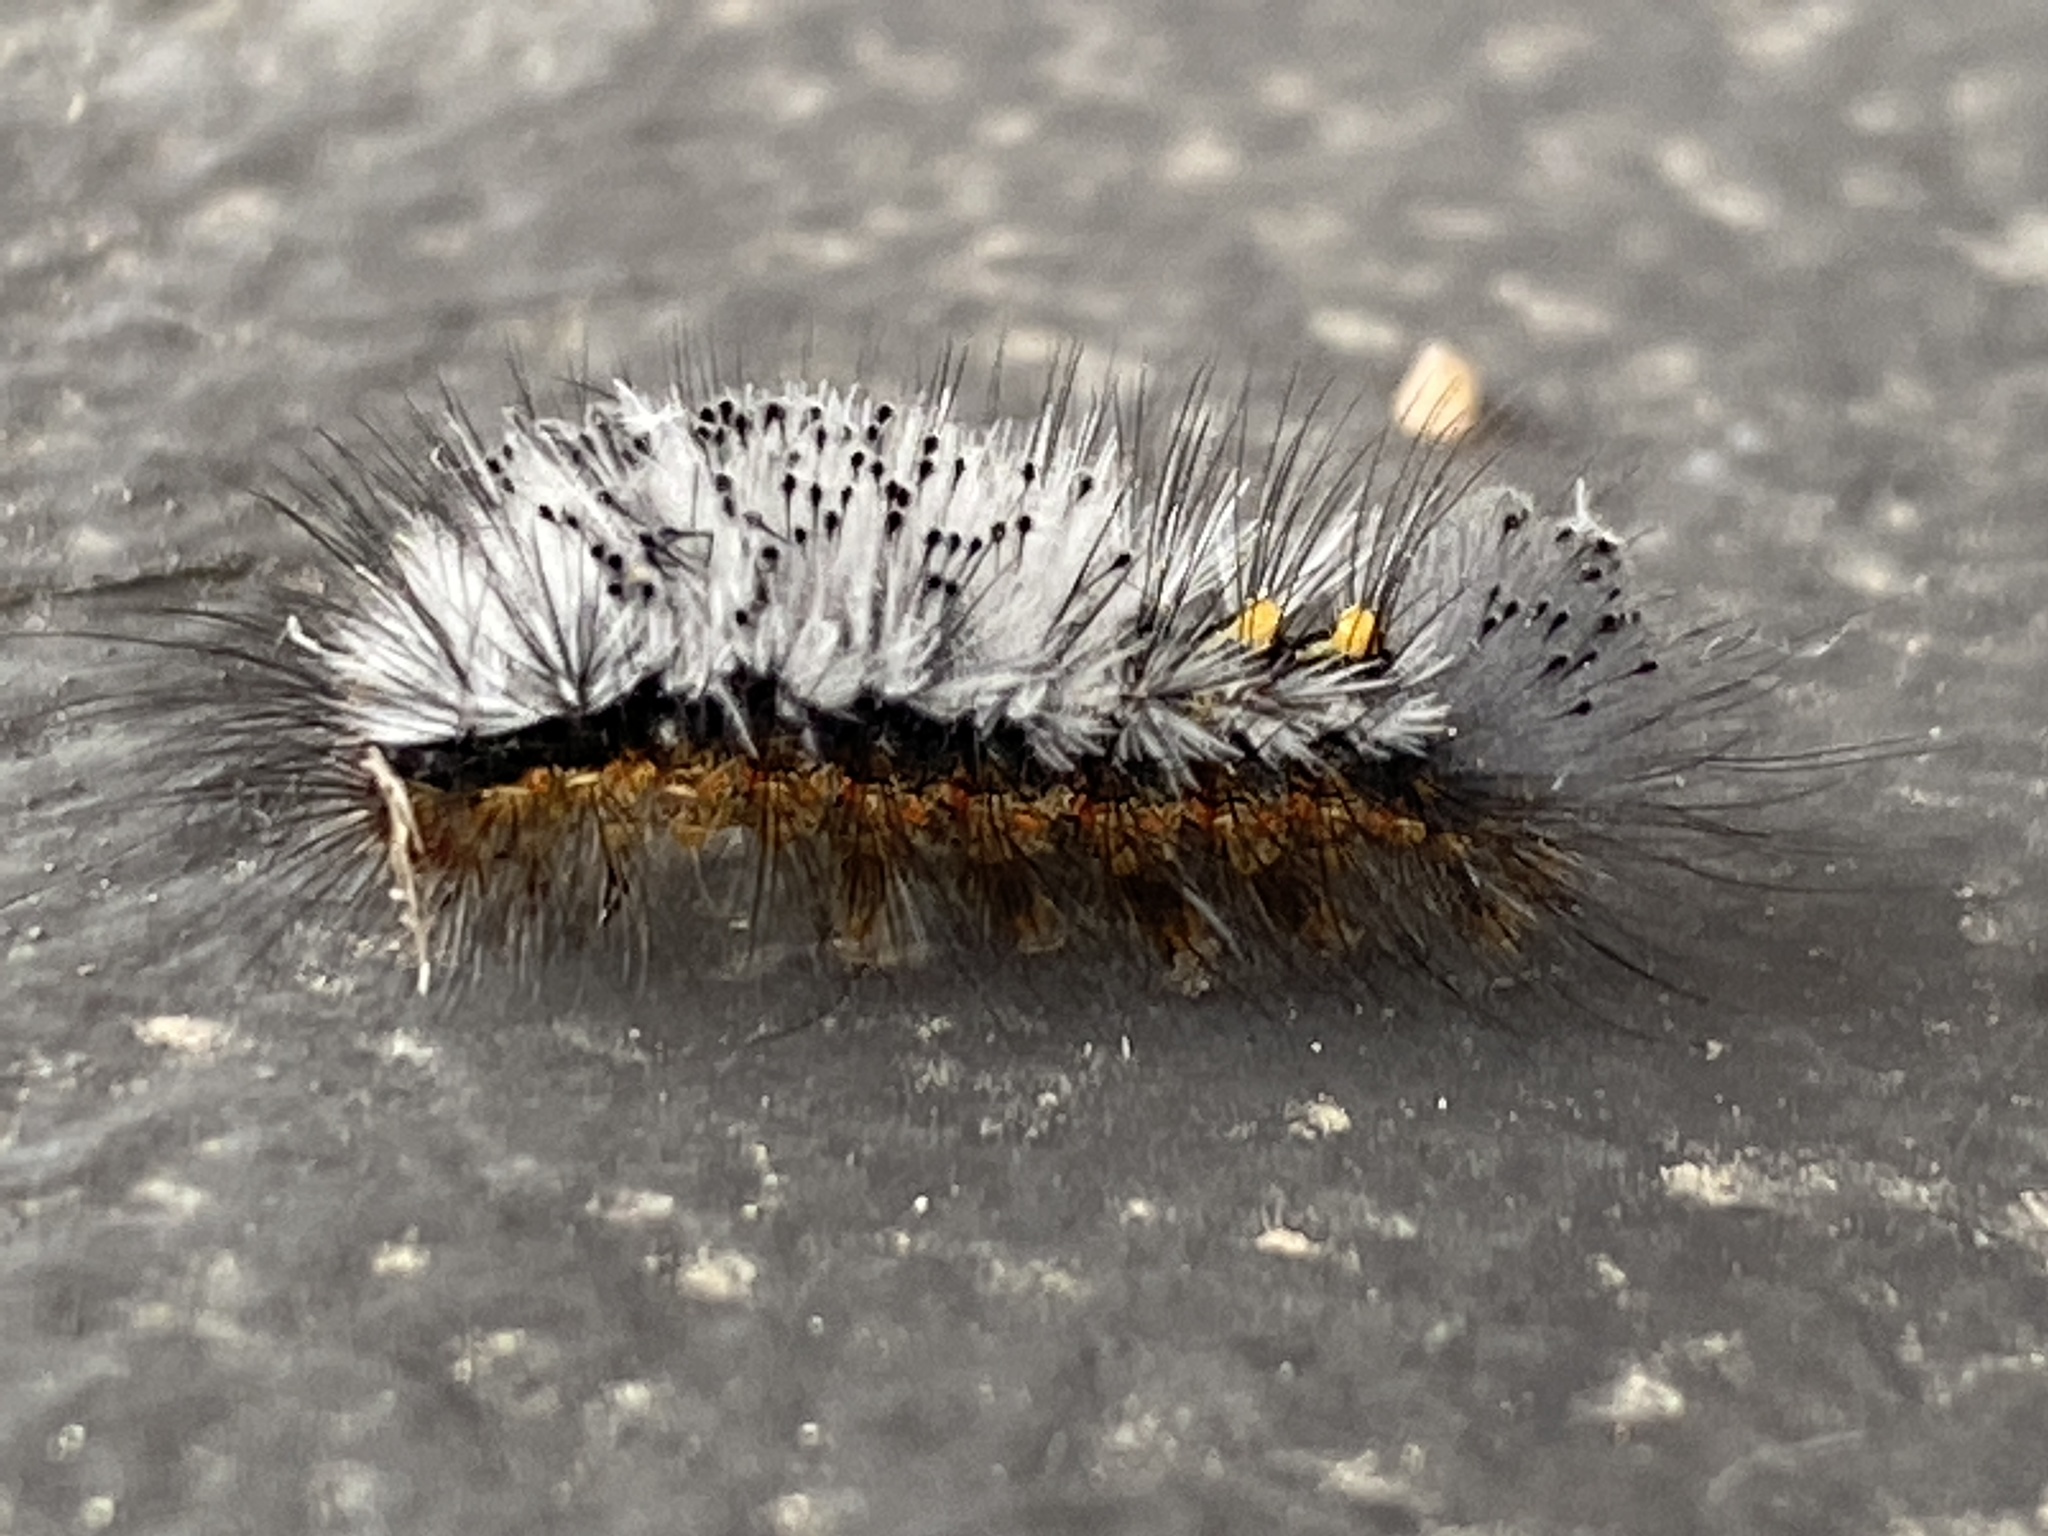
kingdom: Animalia
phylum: Arthropoda
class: Insecta
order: Lepidoptera
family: Erebidae
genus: Orgyia
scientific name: Orgyia tricolor
